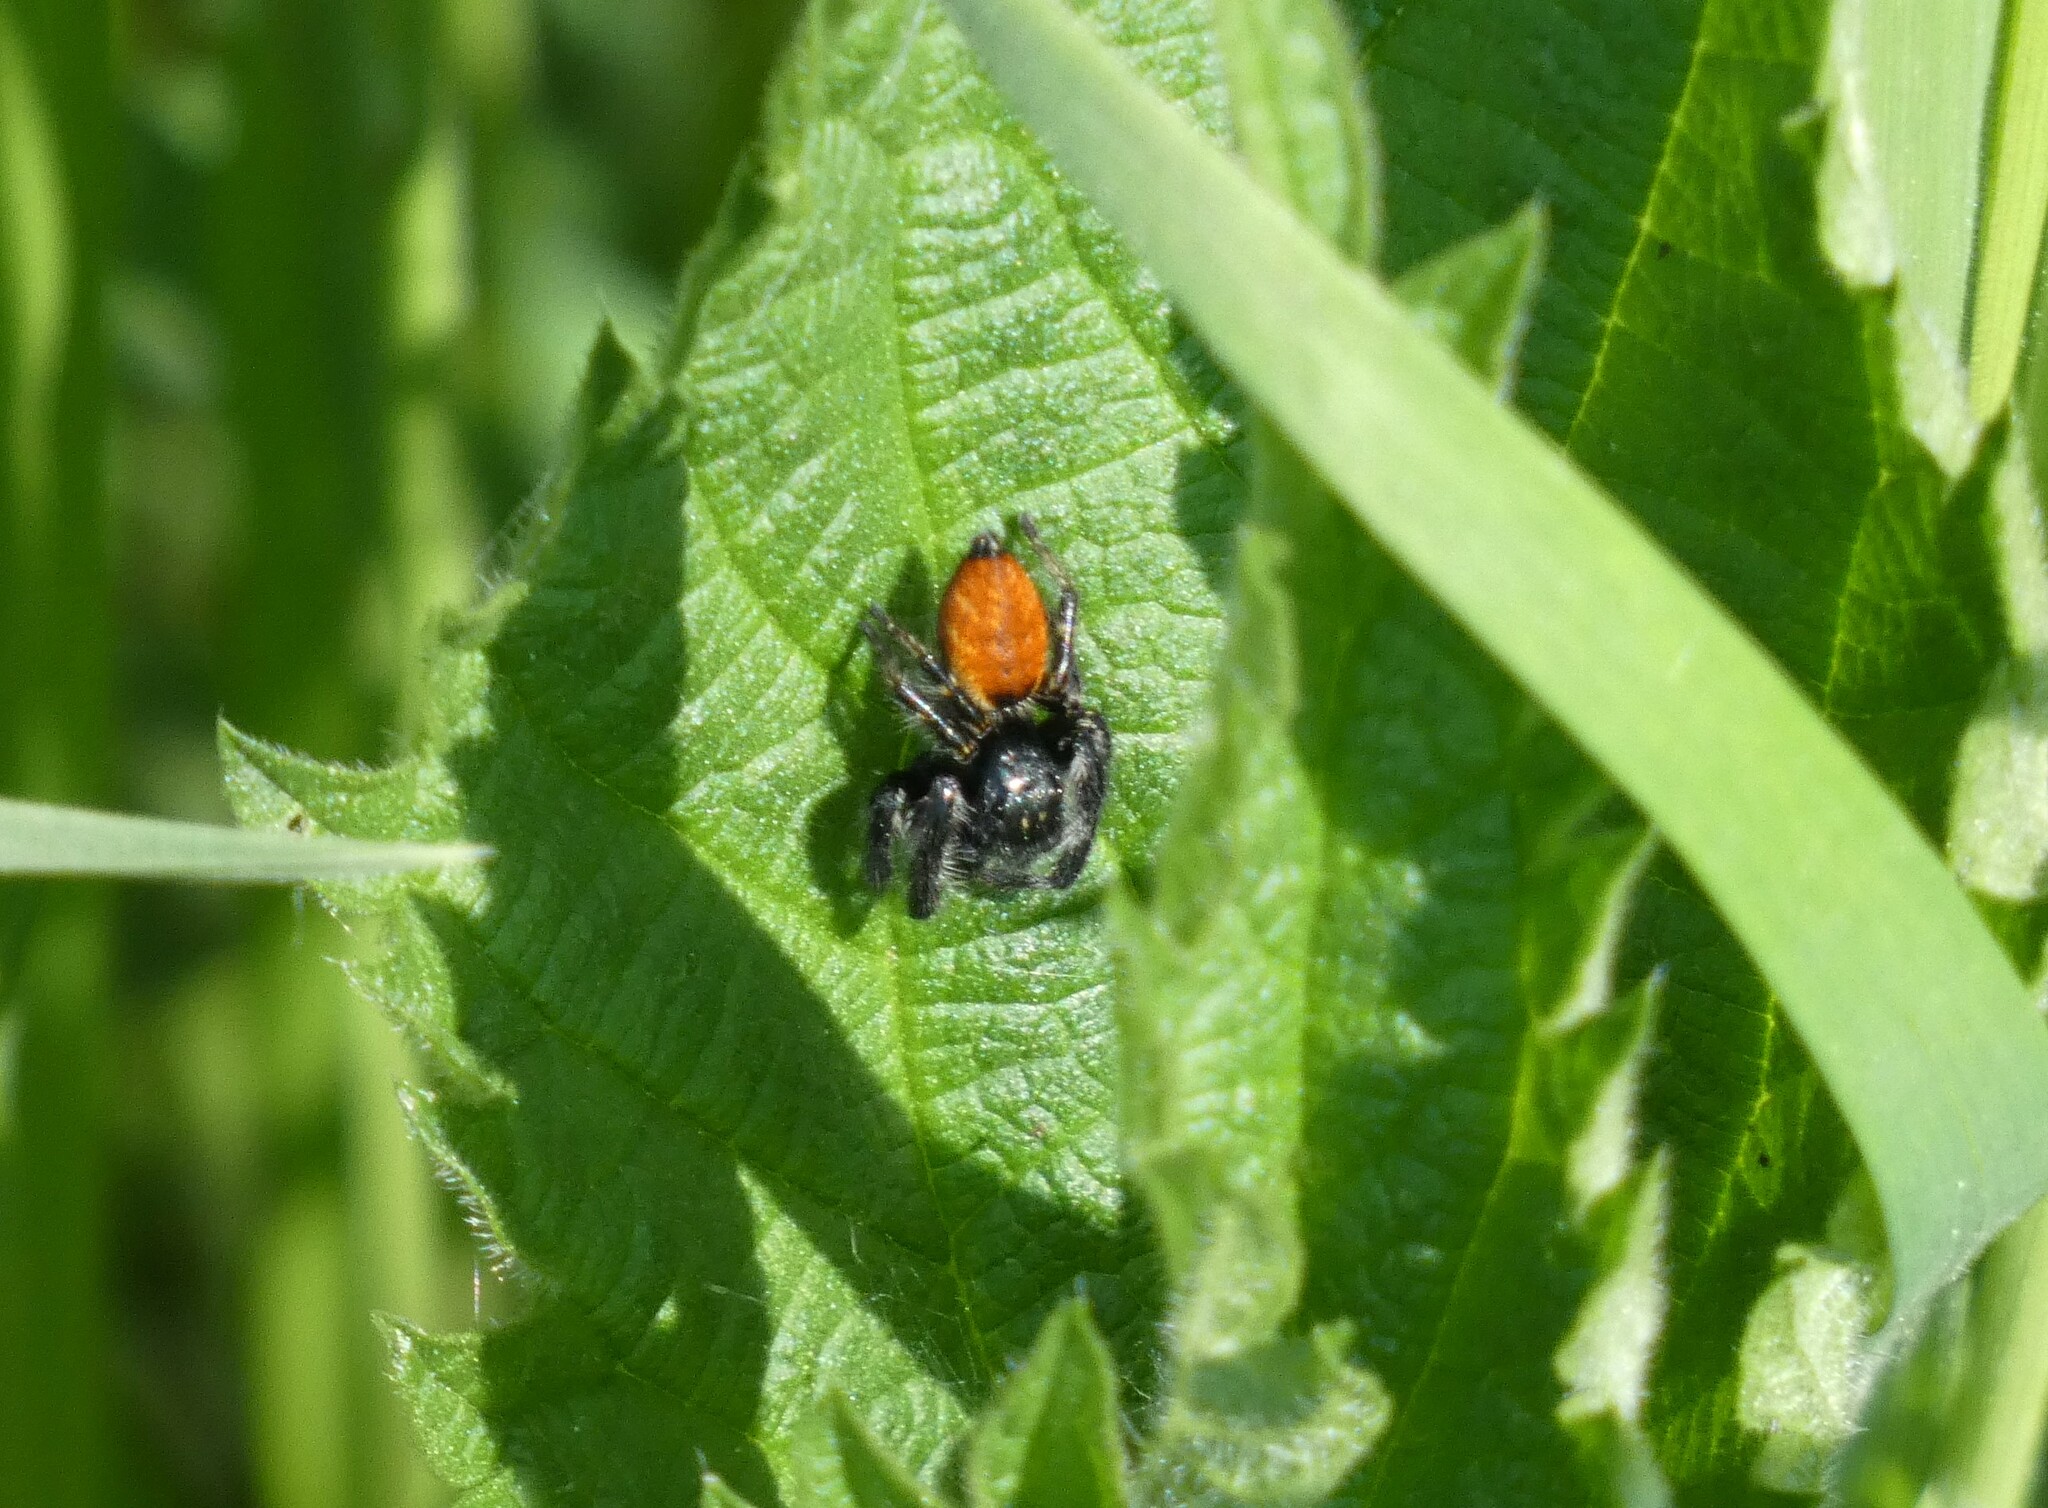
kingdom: Animalia
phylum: Arthropoda
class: Arachnida
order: Araneae
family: Salticidae
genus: Carrhotus
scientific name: Carrhotus xanthogramma
